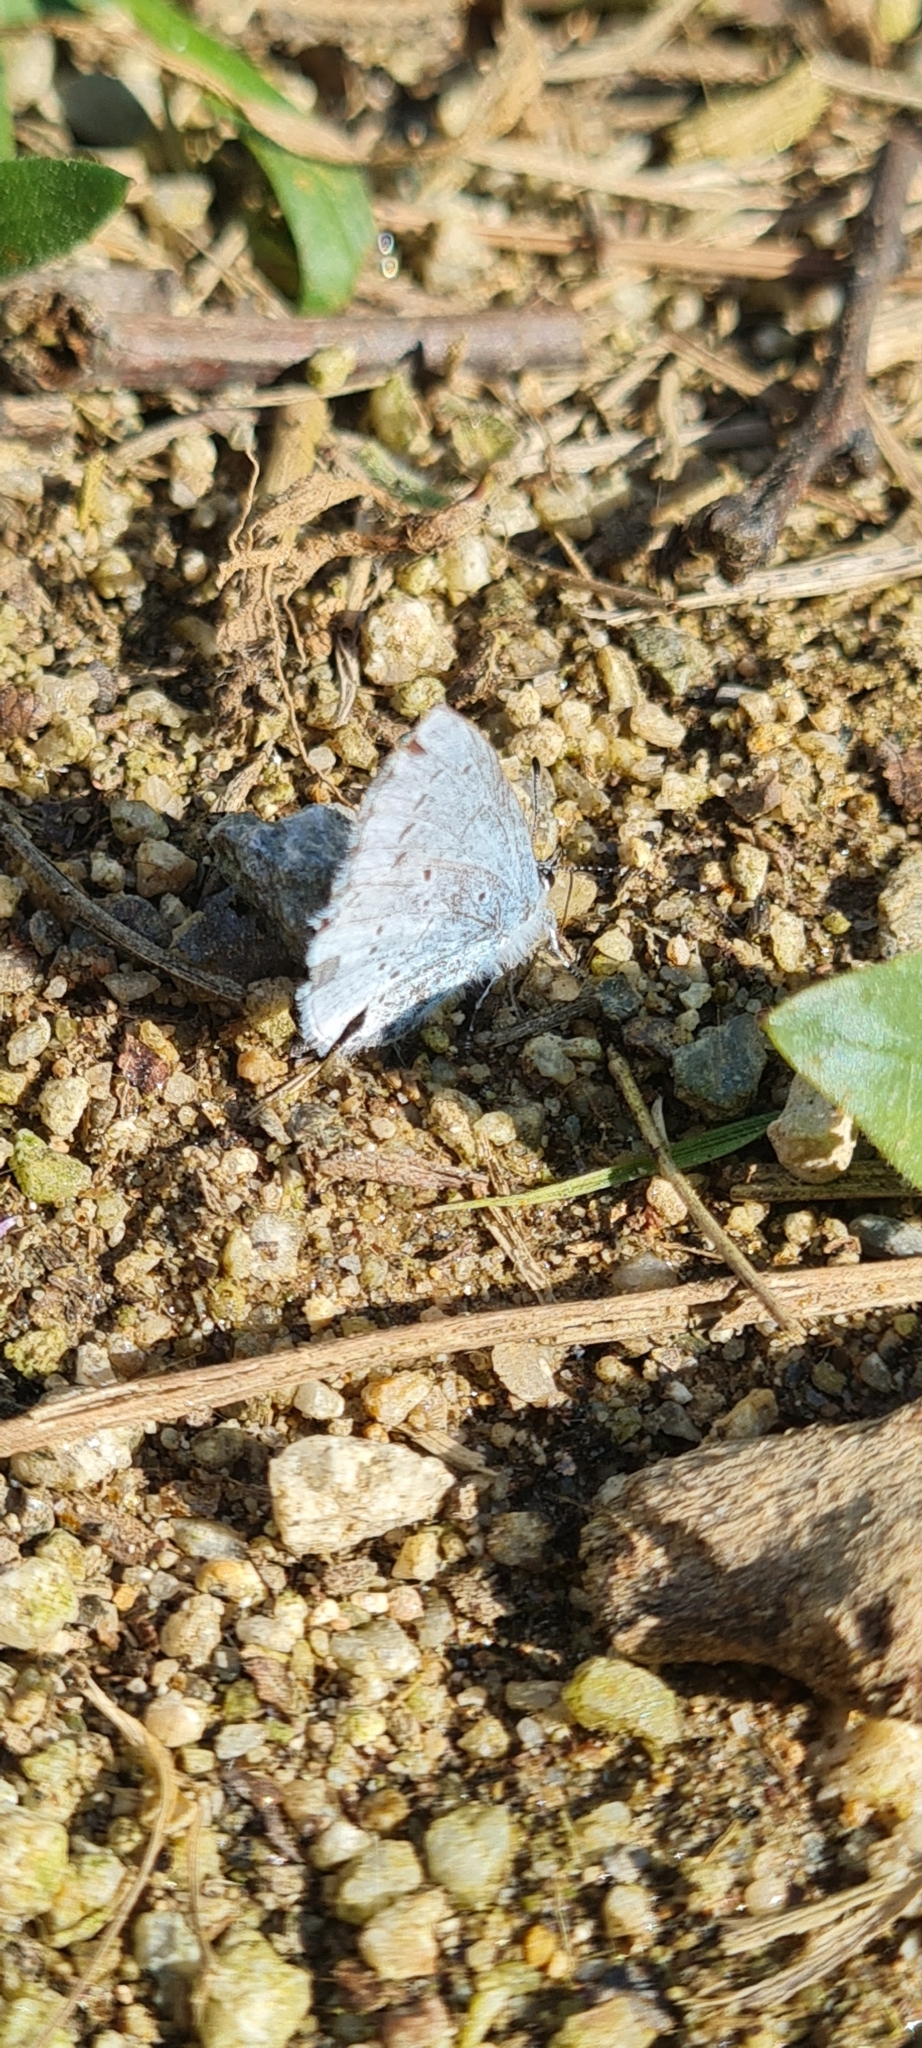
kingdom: Animalia
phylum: Arthropoda
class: Insecta
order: Lepidoptera
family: Lycaenidae
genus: Celastrina
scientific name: Celastrina argiolus
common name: Holly blue
